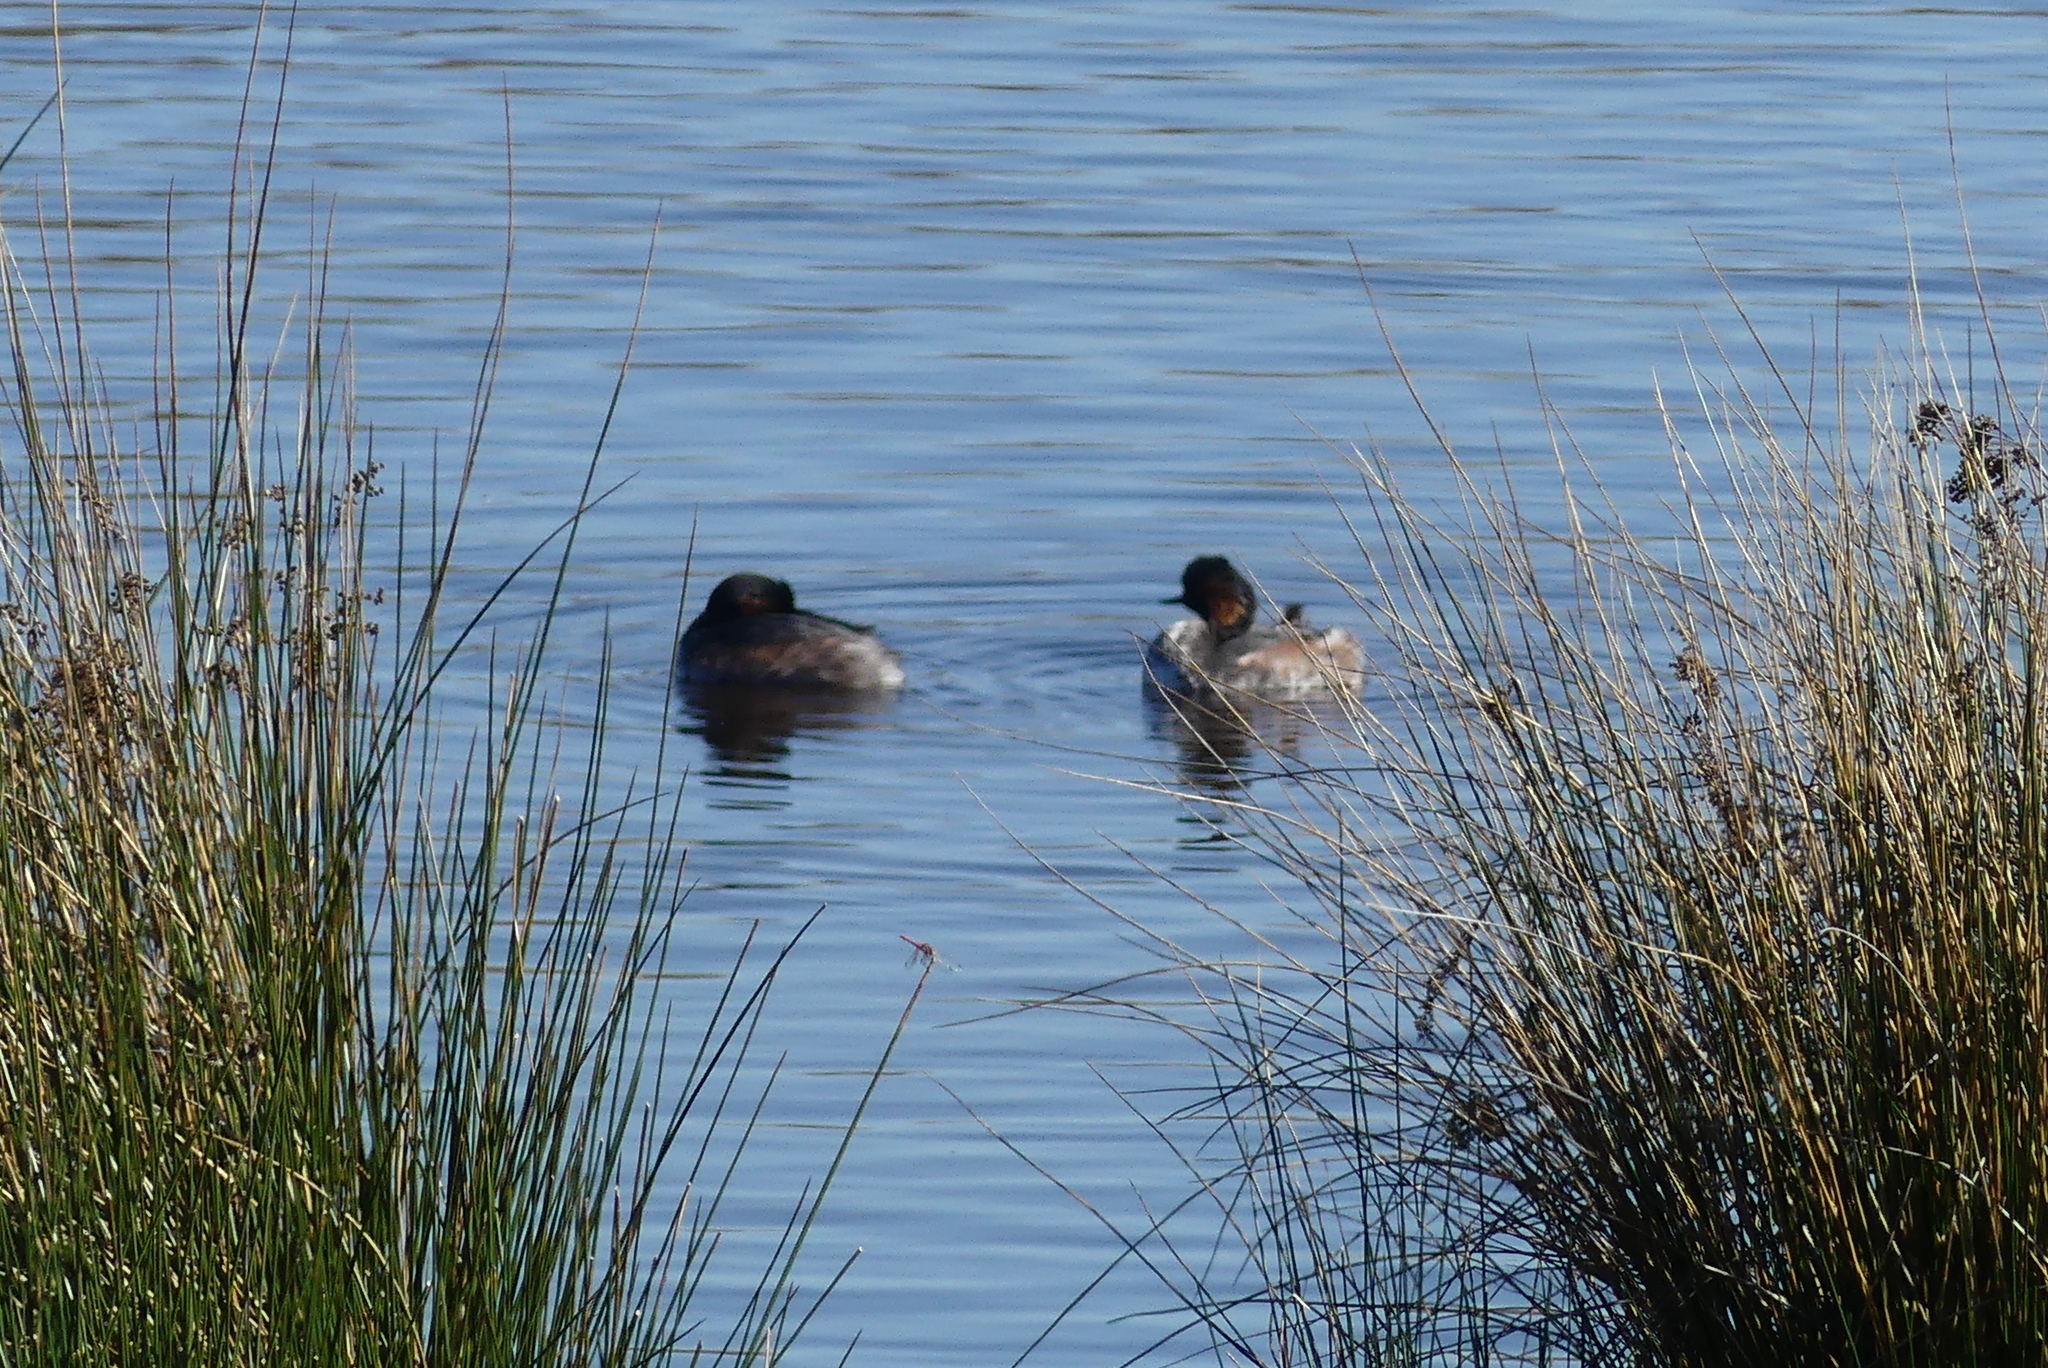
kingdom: Animalia
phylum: Chordata
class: Aves
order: Podicipediformes
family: Podicipedidae
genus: Podiceps
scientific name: Podiceps nigricollis
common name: Black-necked grebe
